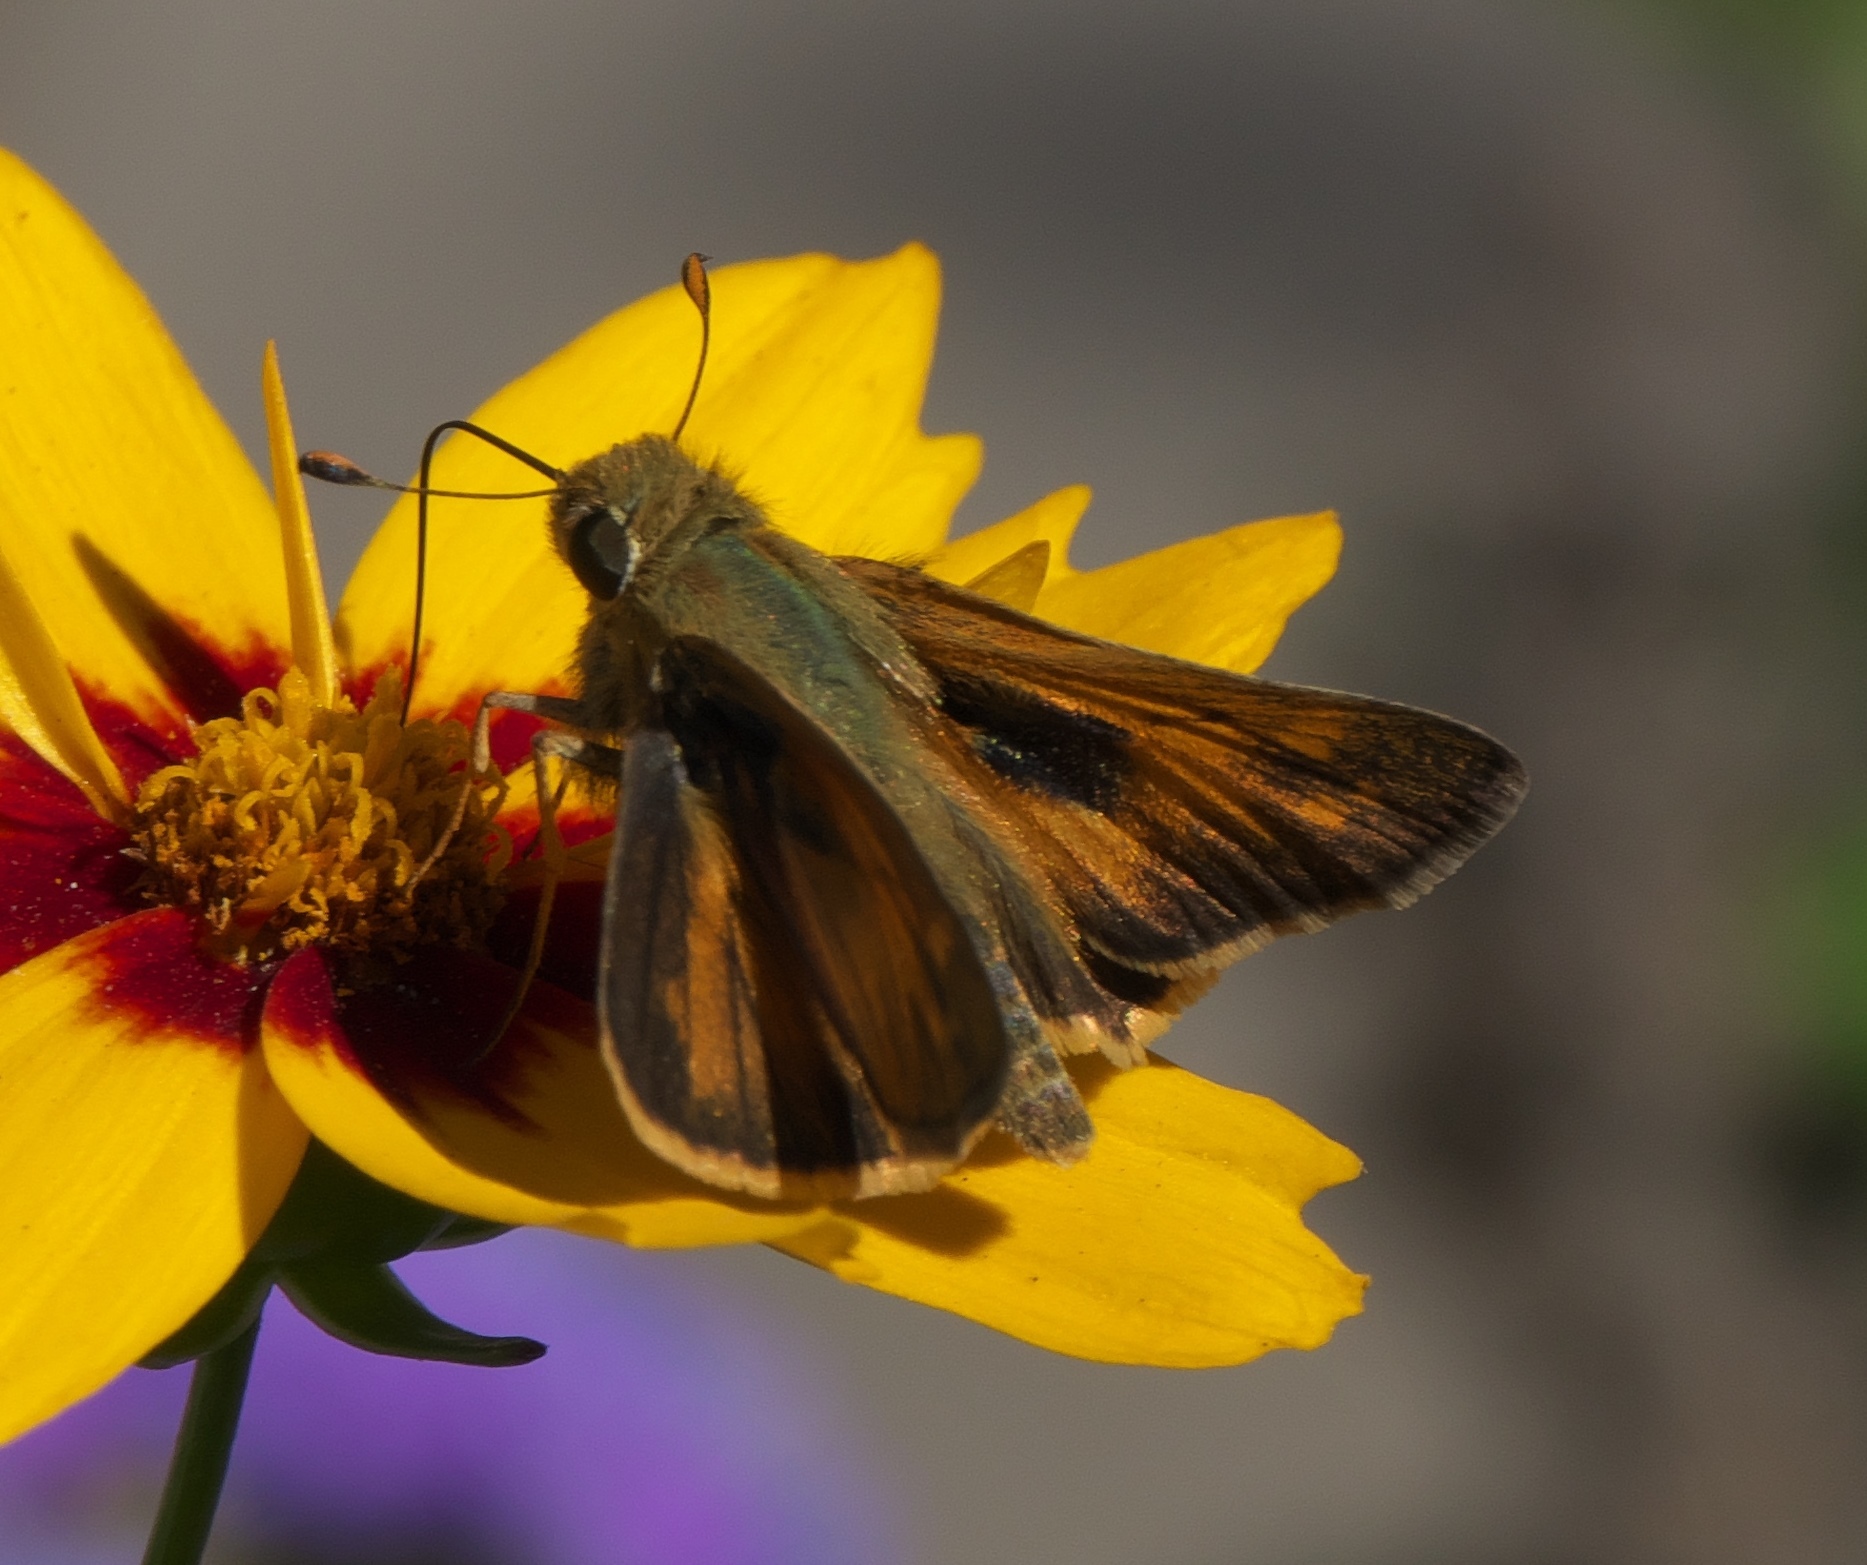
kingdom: Animalia
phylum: Arthropoda
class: Insecta
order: Lepidoptera
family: Hesperiidae
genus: Atalopedes
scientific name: Atalopedes
